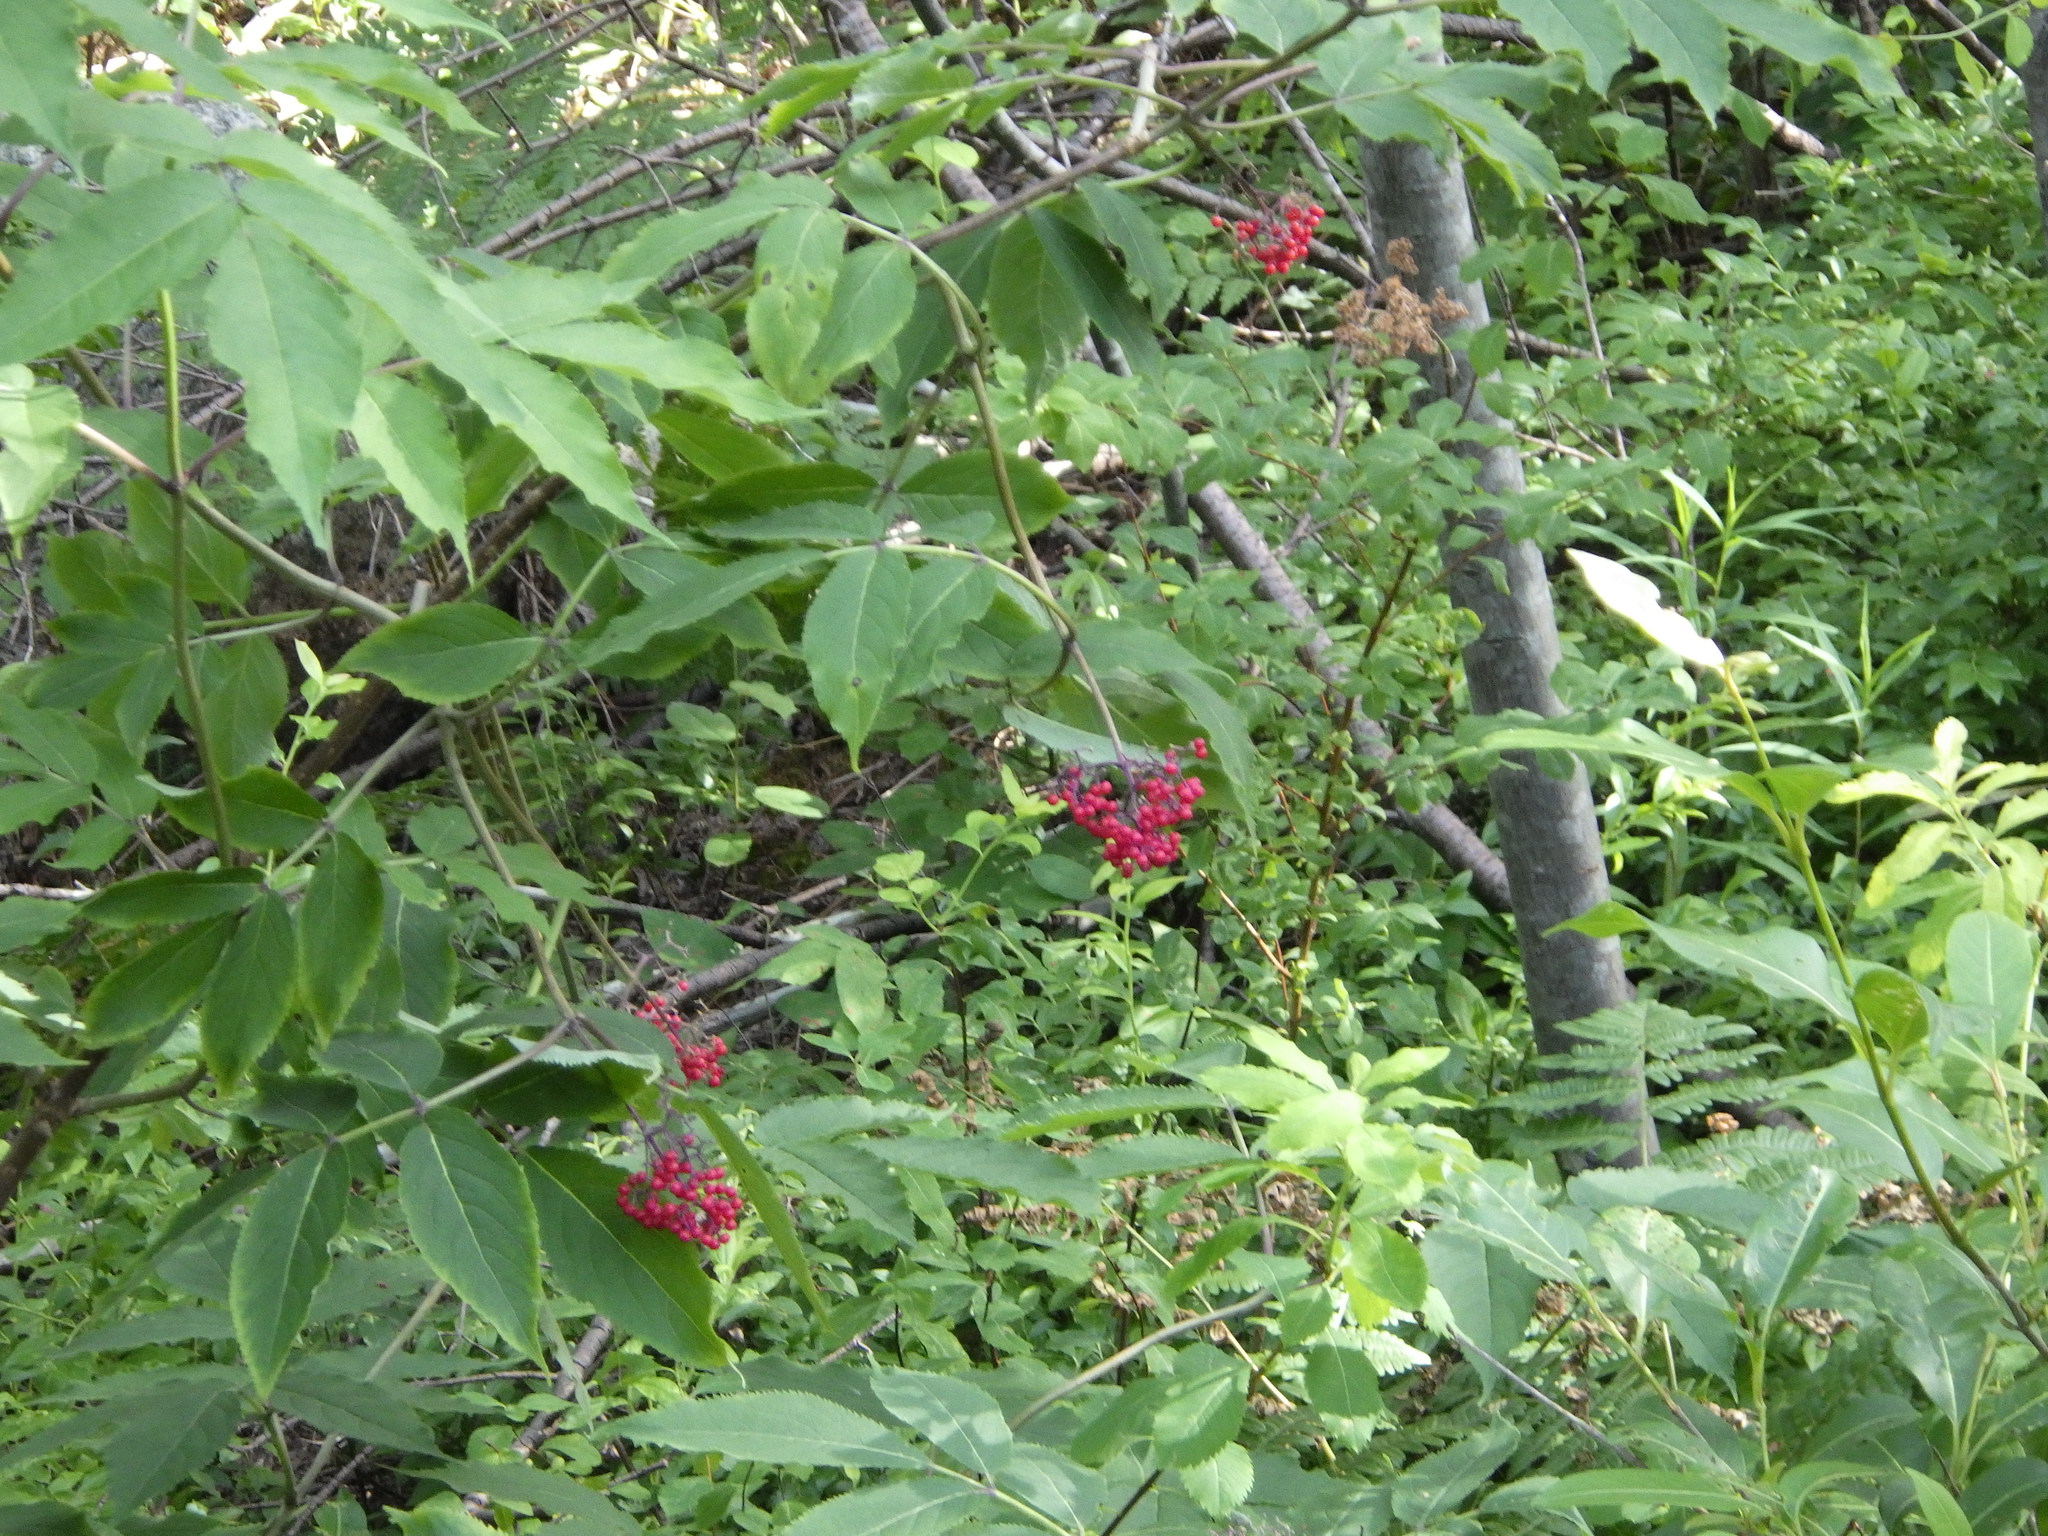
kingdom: Plantae
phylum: Tracheophyta
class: Magnoliopsida
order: Dipsacales
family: Viburnaceae
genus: Sambucus
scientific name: Sambucus racemosa
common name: Red-berried elder
